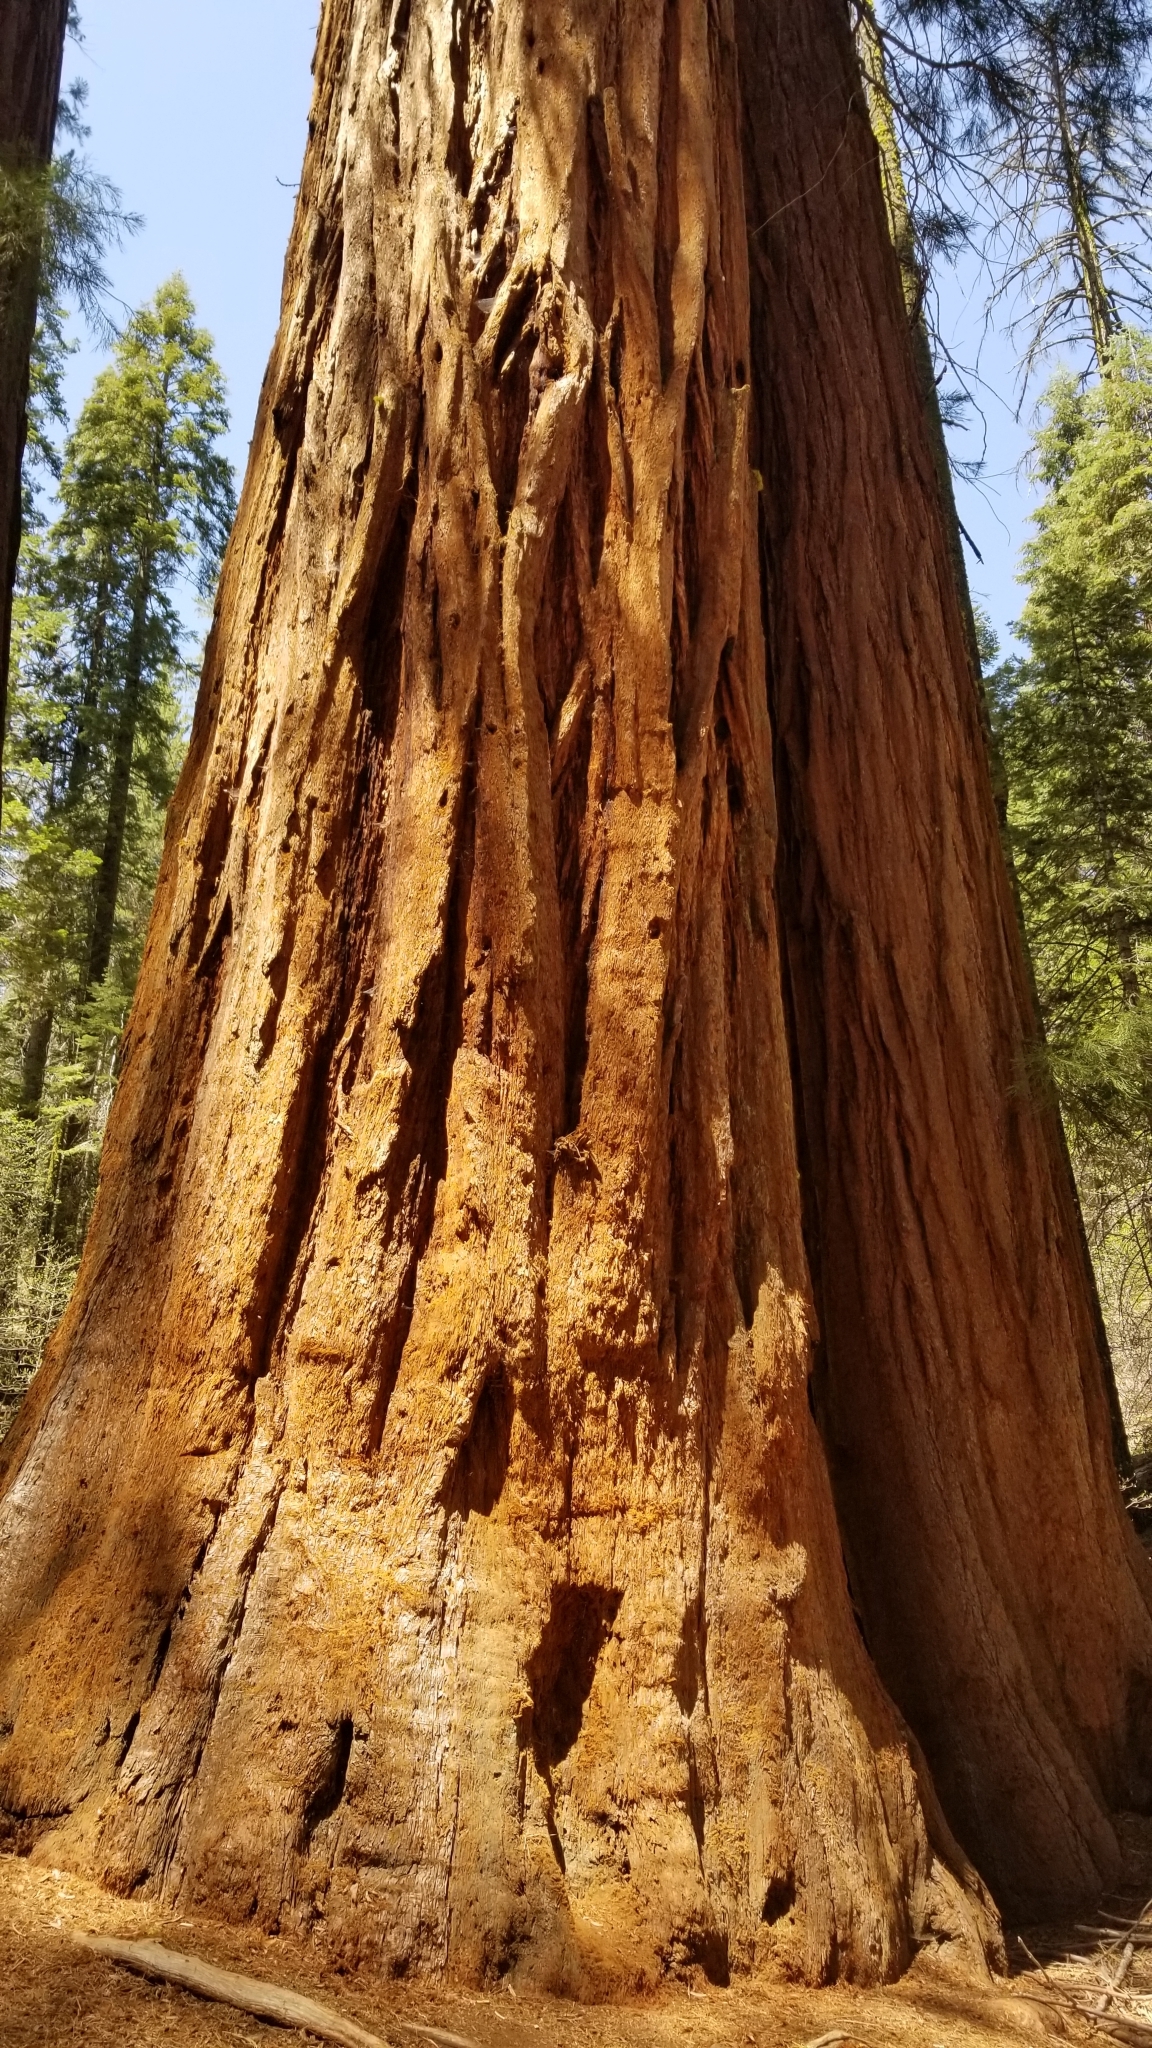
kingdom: Plantae
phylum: Tracheophyta
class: Pinopsida
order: Pinales
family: Cupressaceae
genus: Sequoiadendron
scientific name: Sequoiadendron giganteum
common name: Wellingtonia
